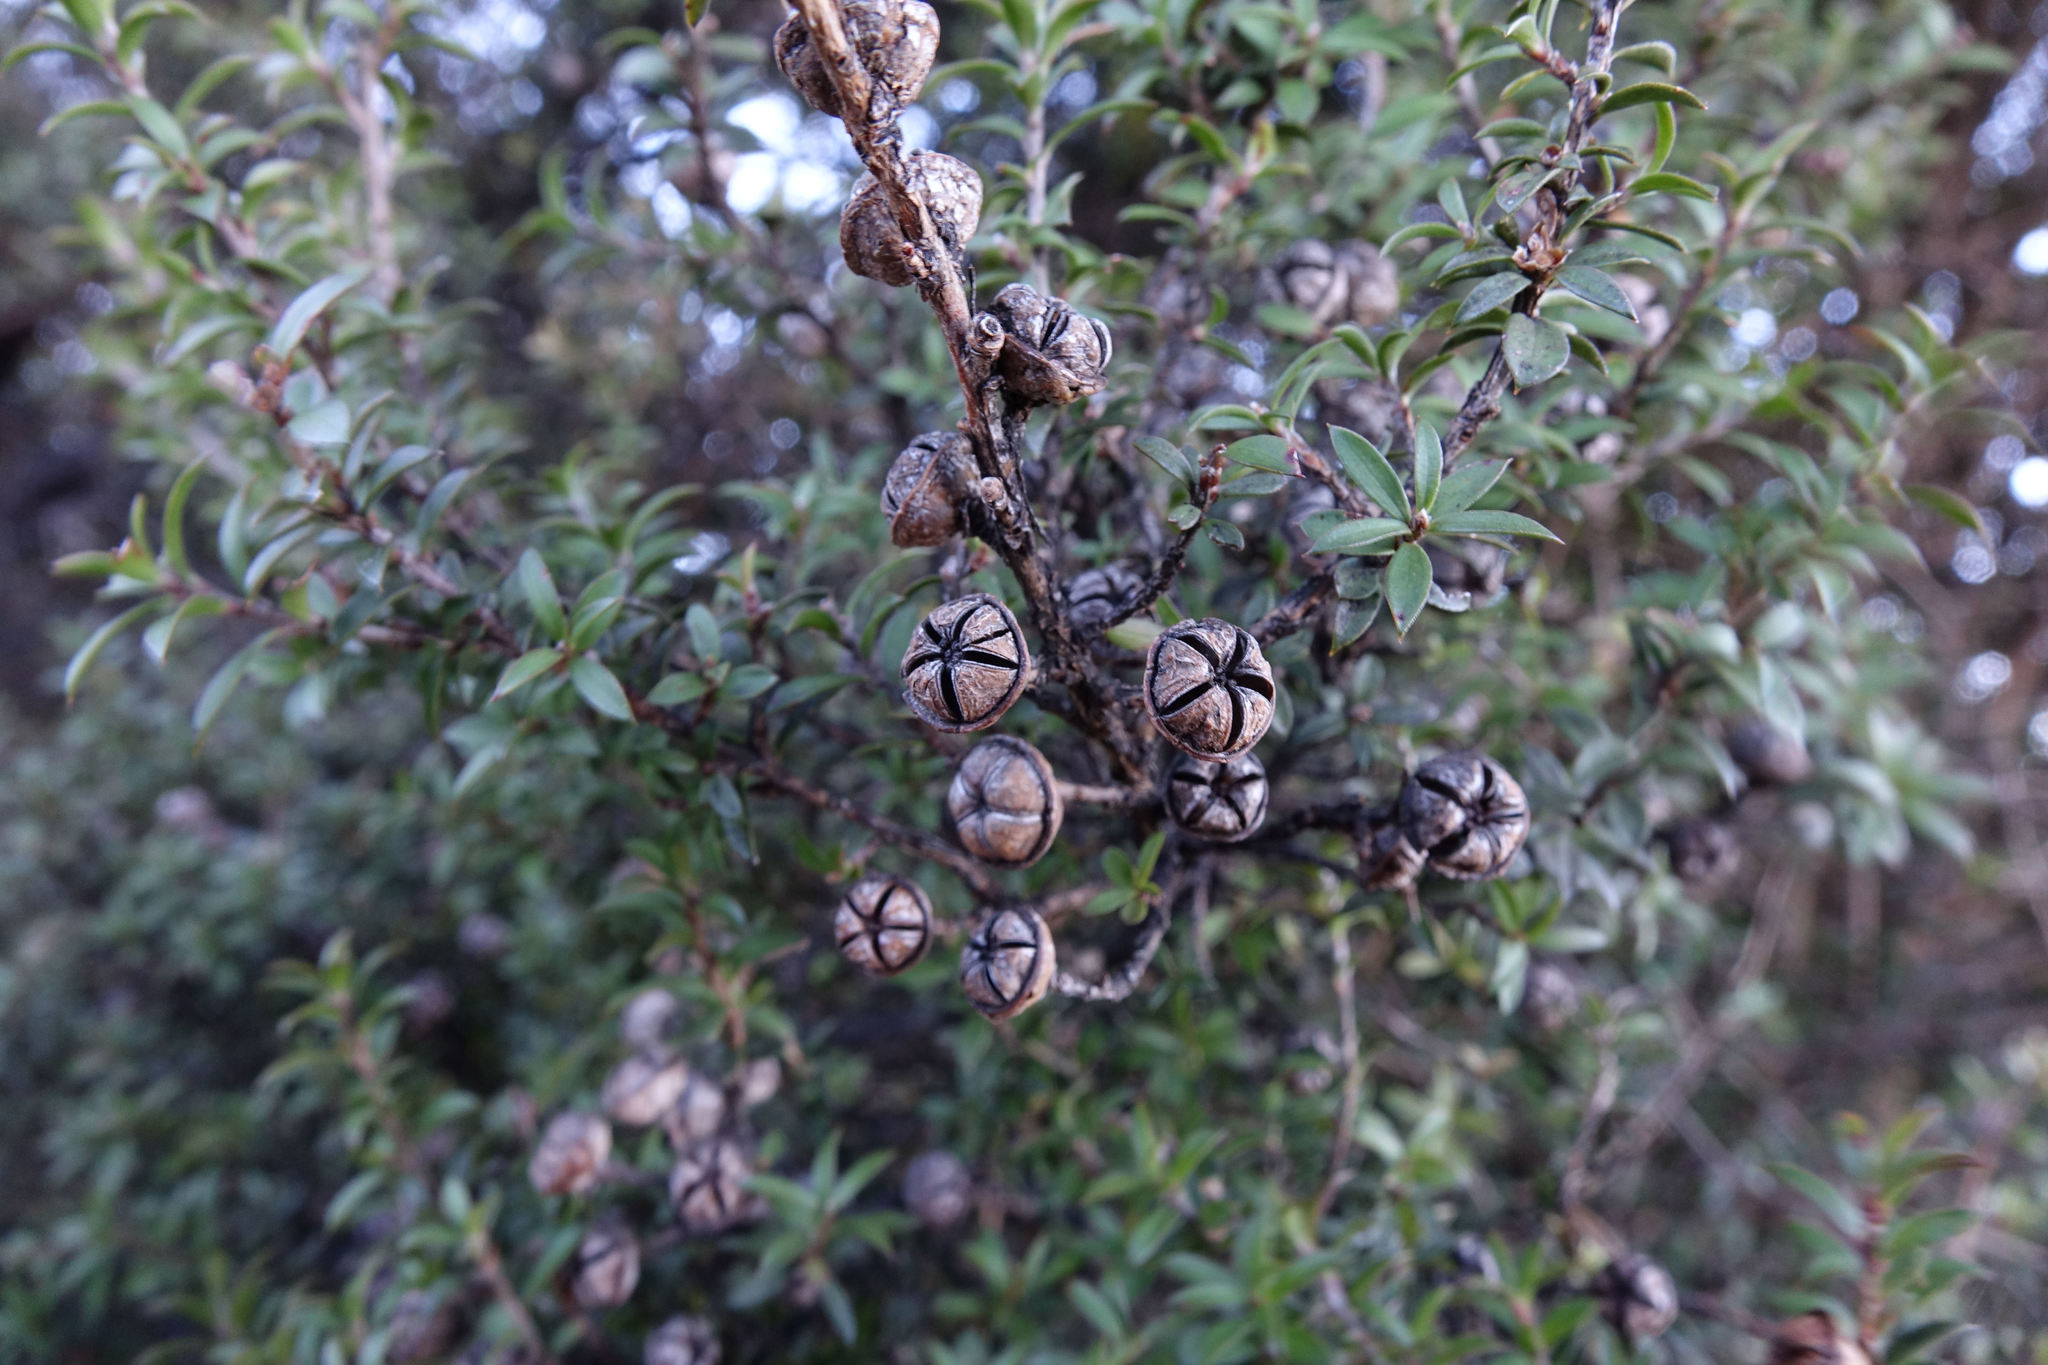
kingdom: Plantae
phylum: Tracheophyta
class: Magnoliopsida
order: Myrtales
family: Myrtaceae
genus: Leptospermum
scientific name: Leptospermum scoparium
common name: Broom tea-tree
